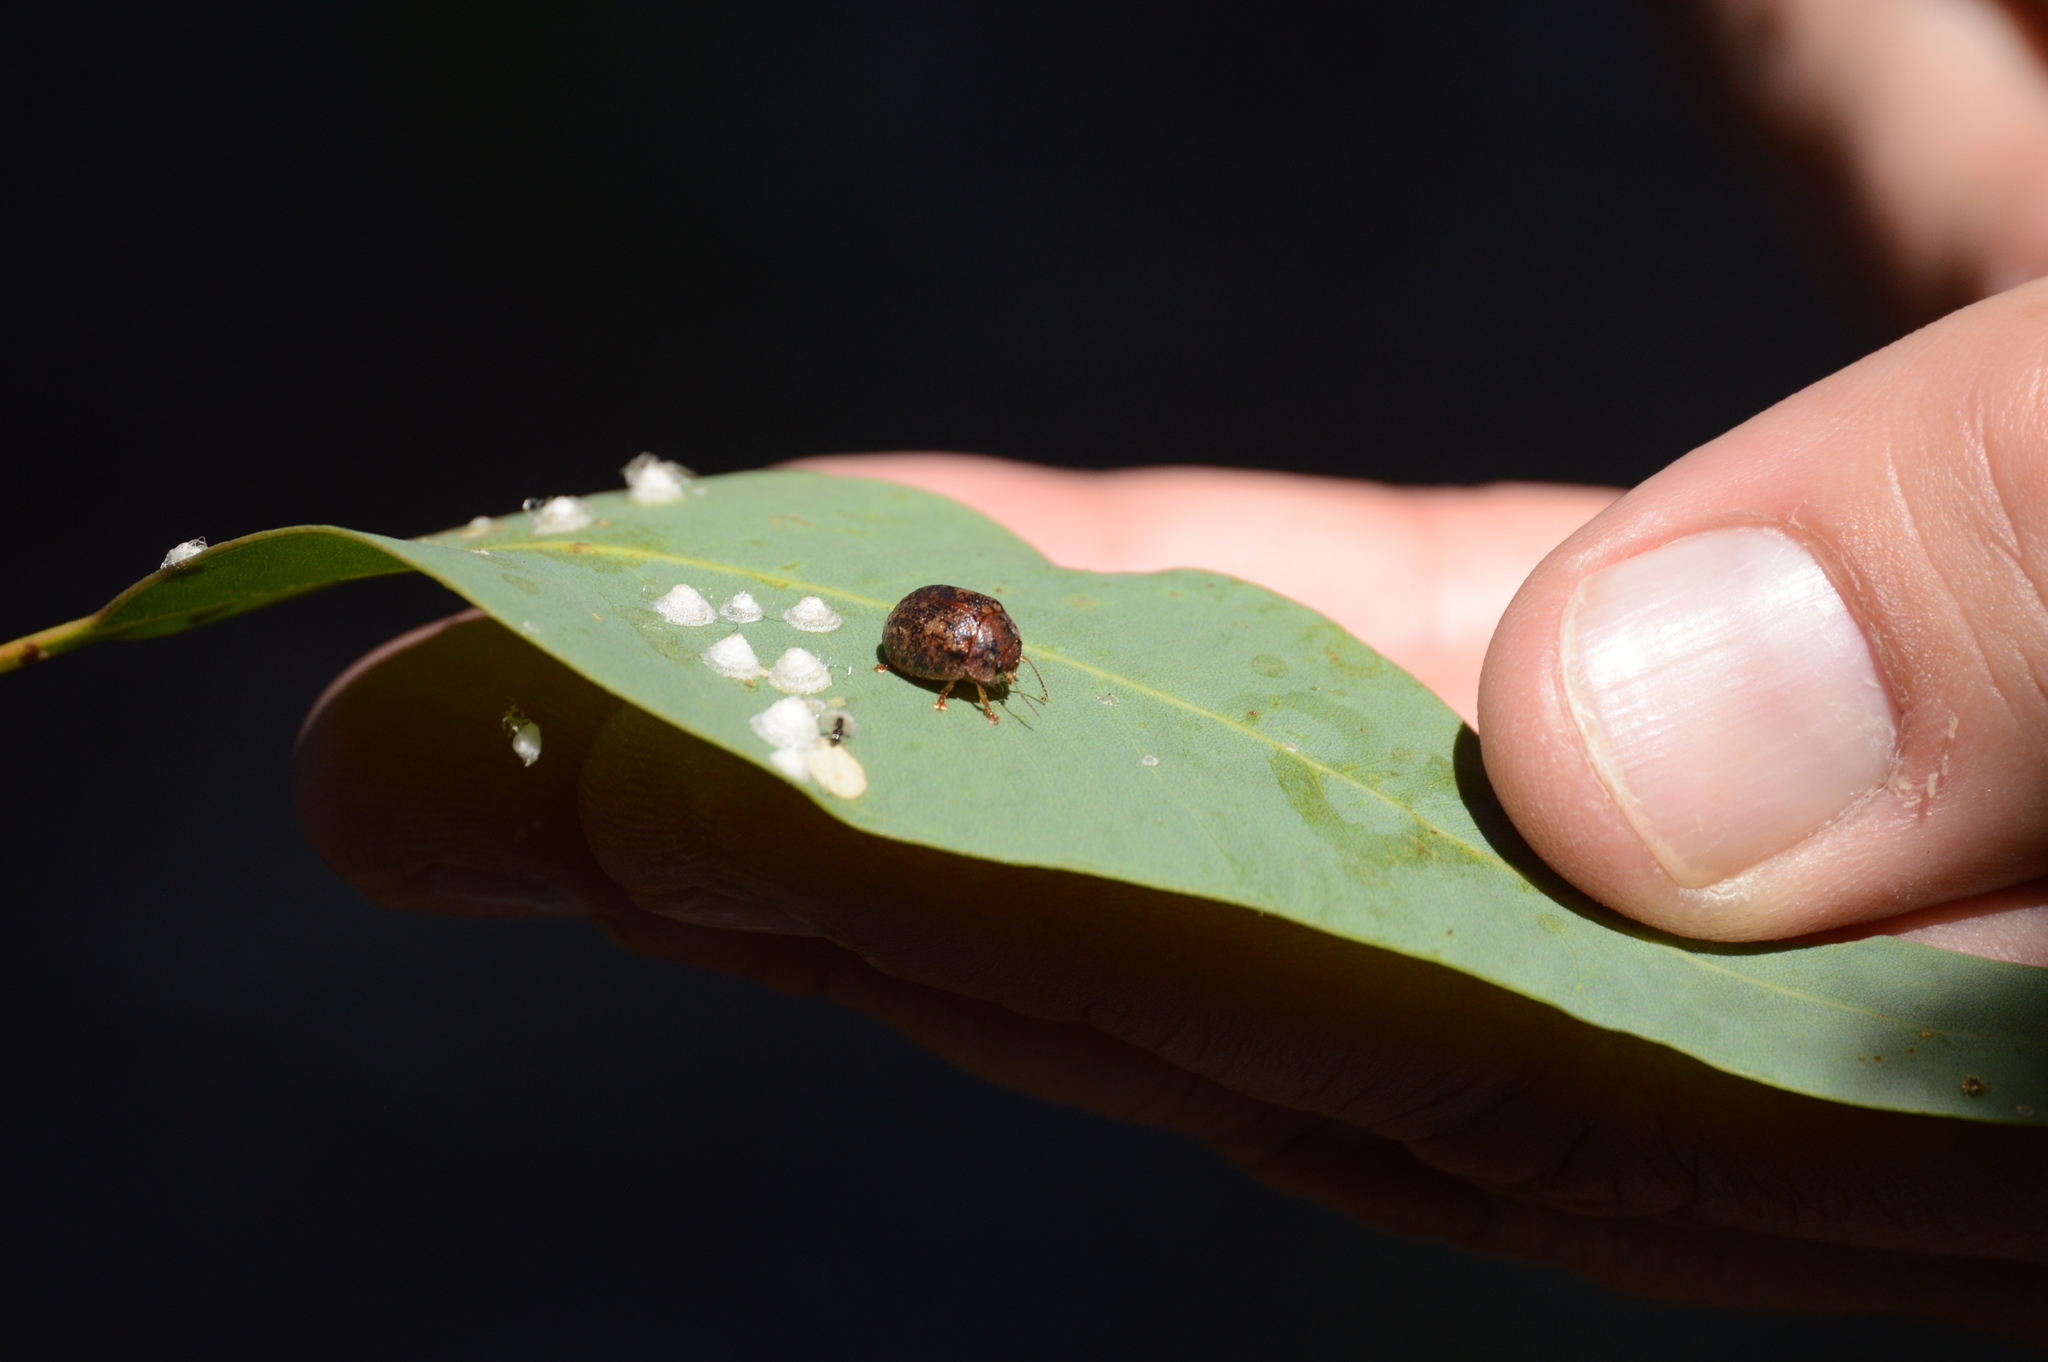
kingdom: Animalia
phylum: Arthropoda
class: Insecta
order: Coleoptera
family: Chrysomelidae
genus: Trachymela
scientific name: Trachymela sloanei
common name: Australian tortoise beetle
